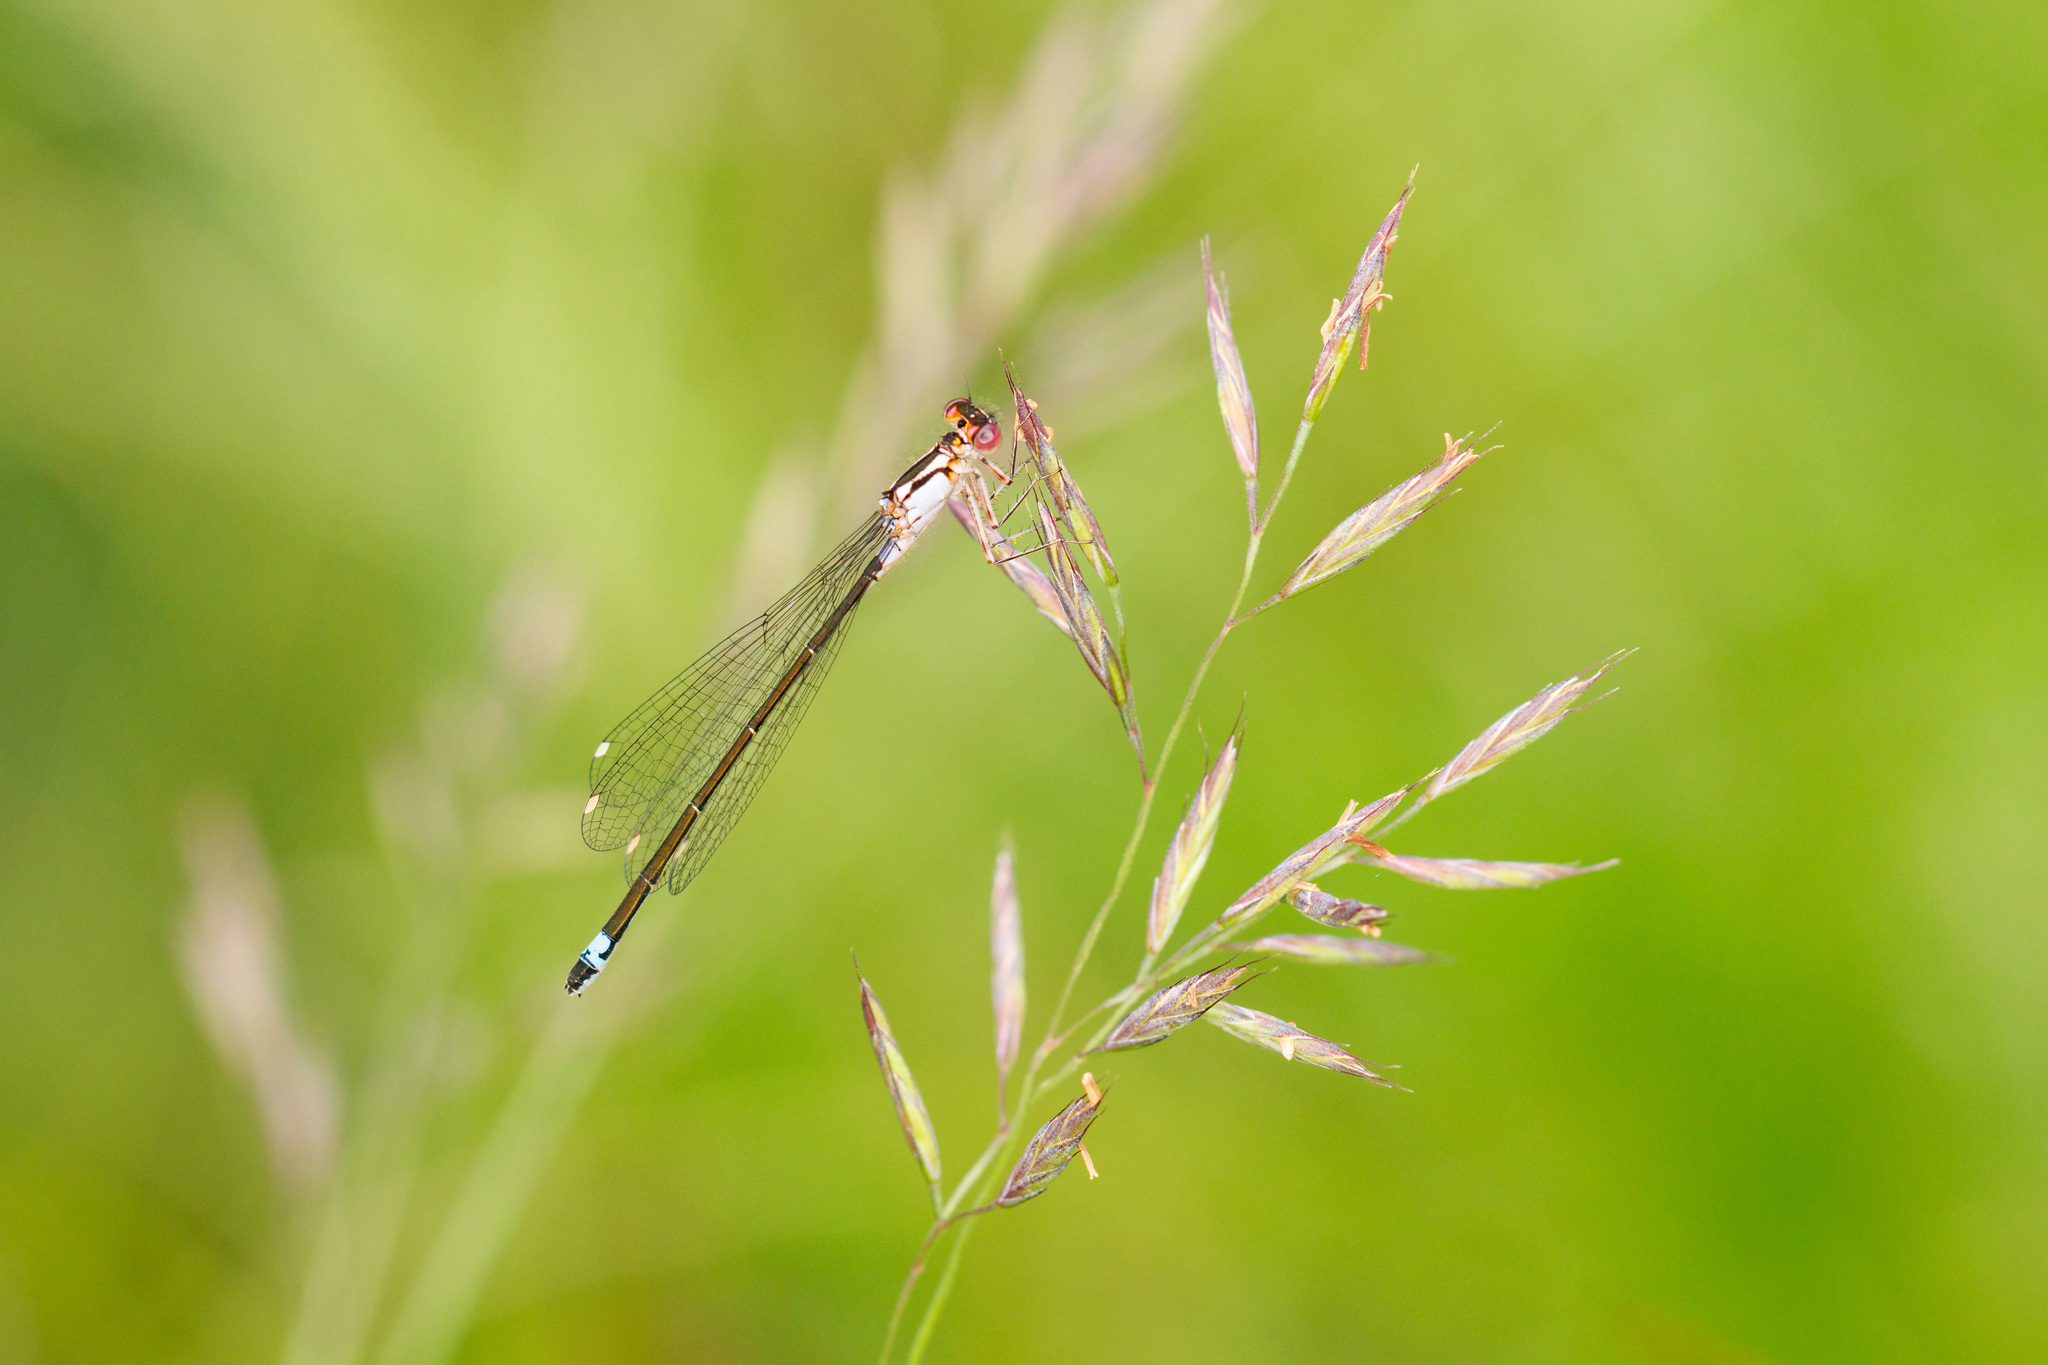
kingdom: Animalia
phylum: Arthropoda
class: Insecta
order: Odonata
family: Coenagrionidae
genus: Ischnura
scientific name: Ischnura cervula
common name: Pacific forktail
